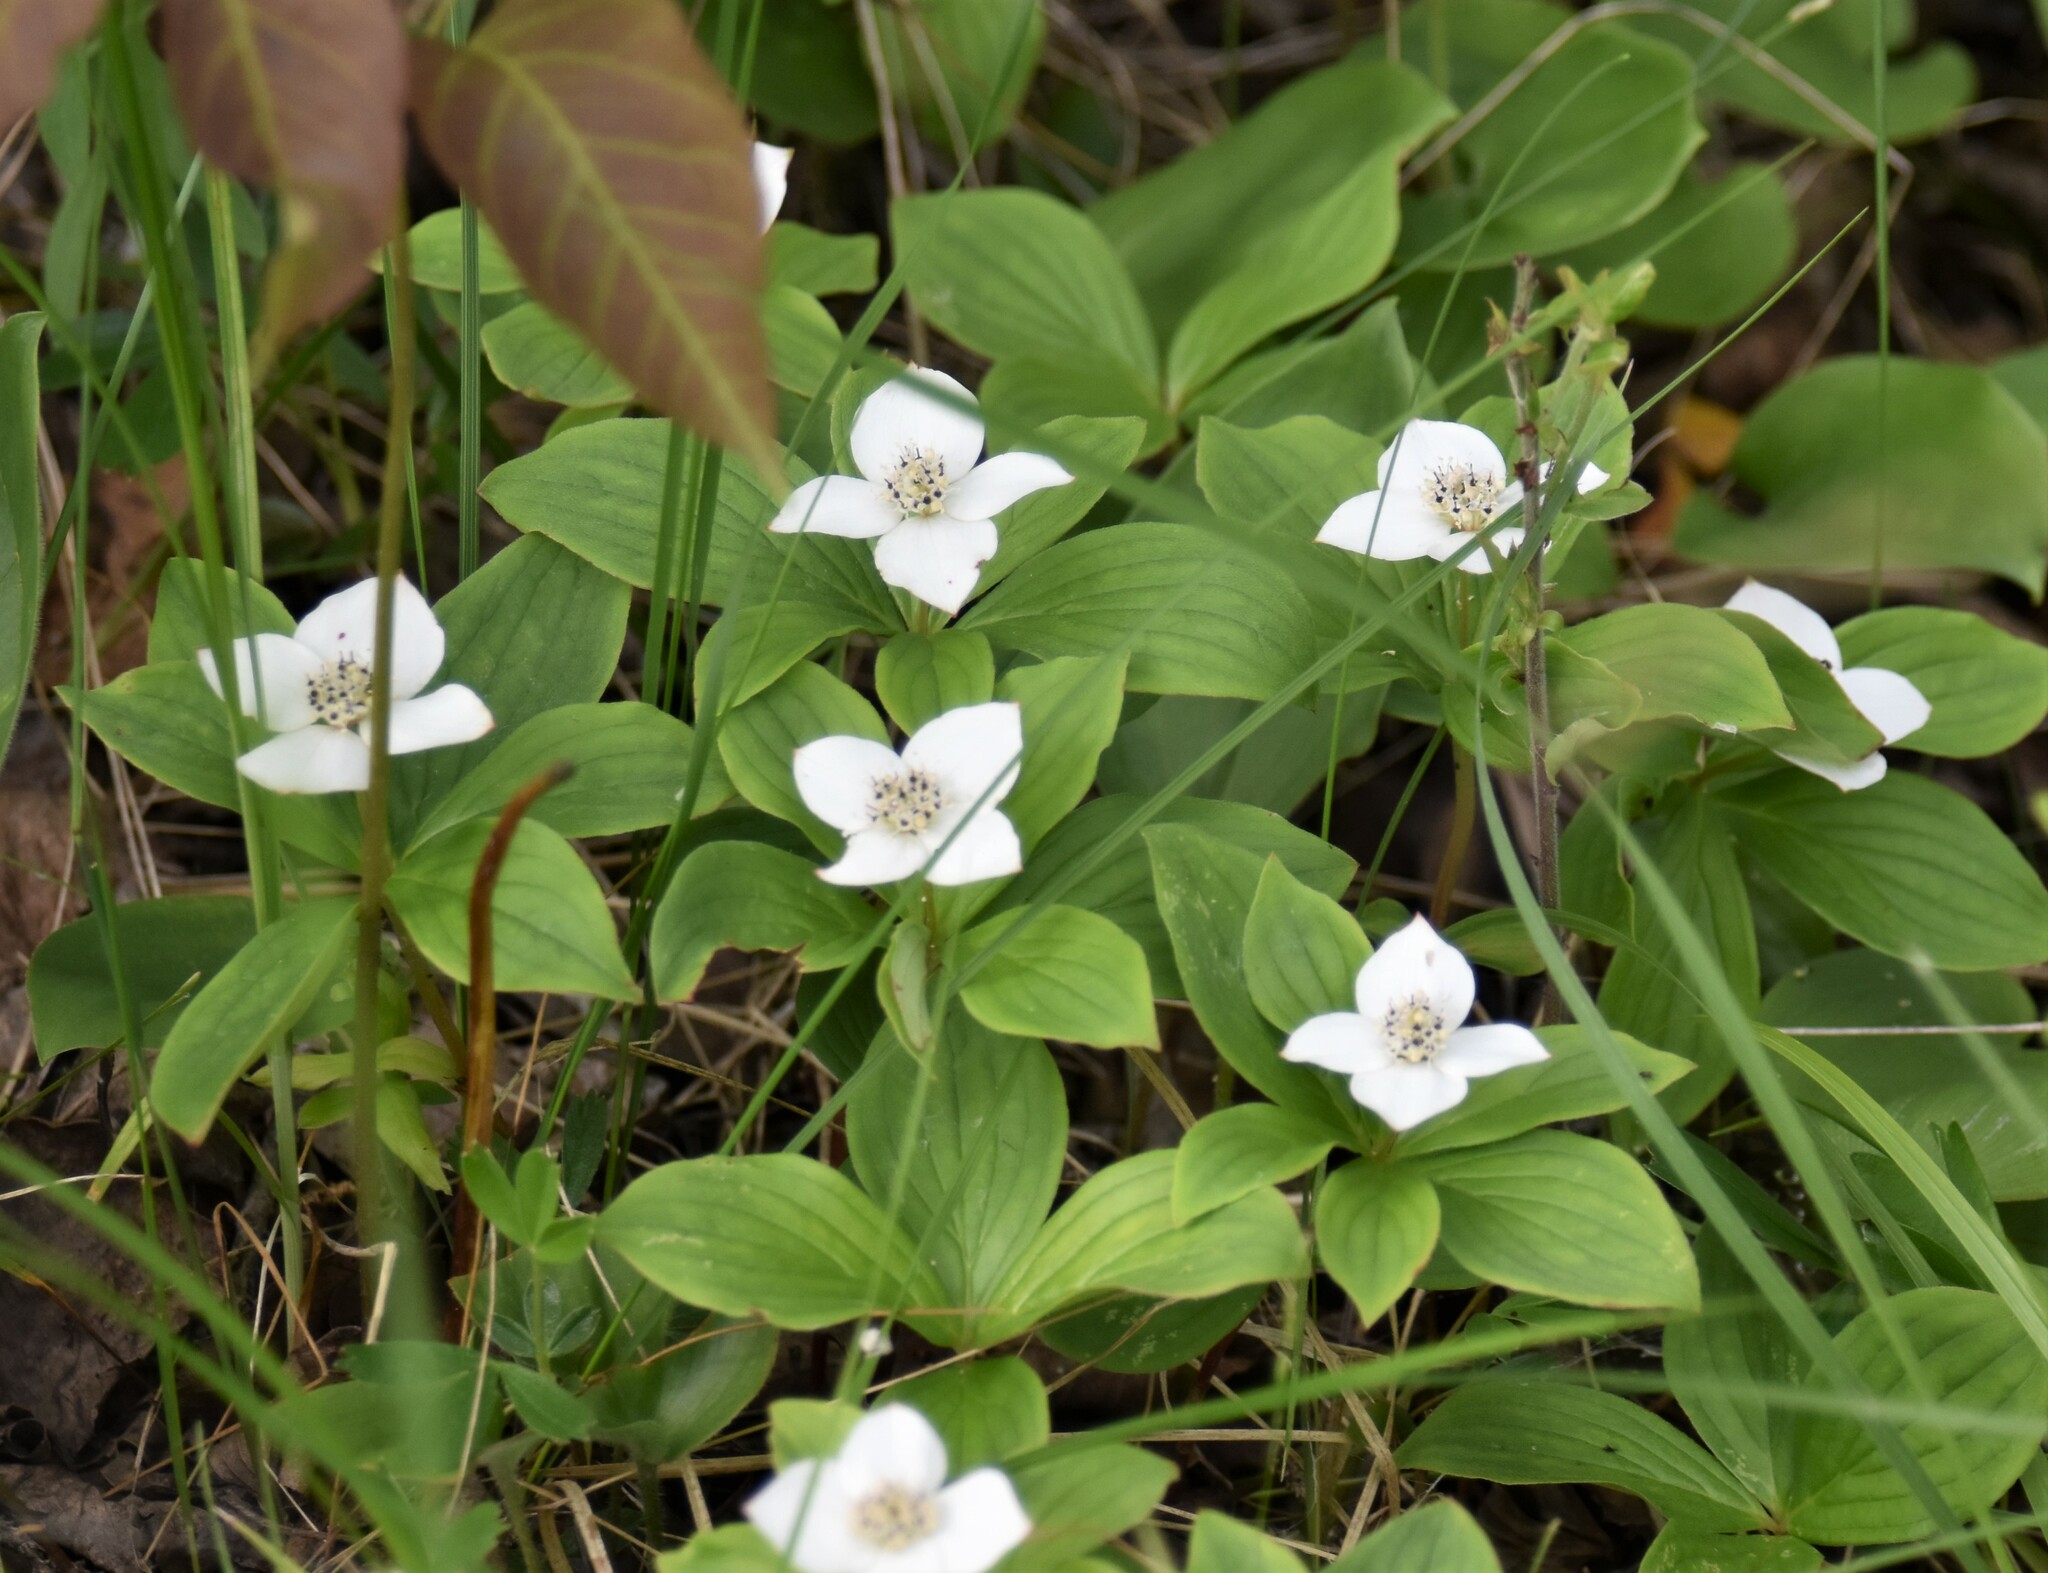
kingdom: Plantae
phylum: Tracheophyta
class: Magnoliopsida
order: Cornales
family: Cornaceae
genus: Cornus
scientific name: Cornus canadensis
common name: Creeping dogwood
